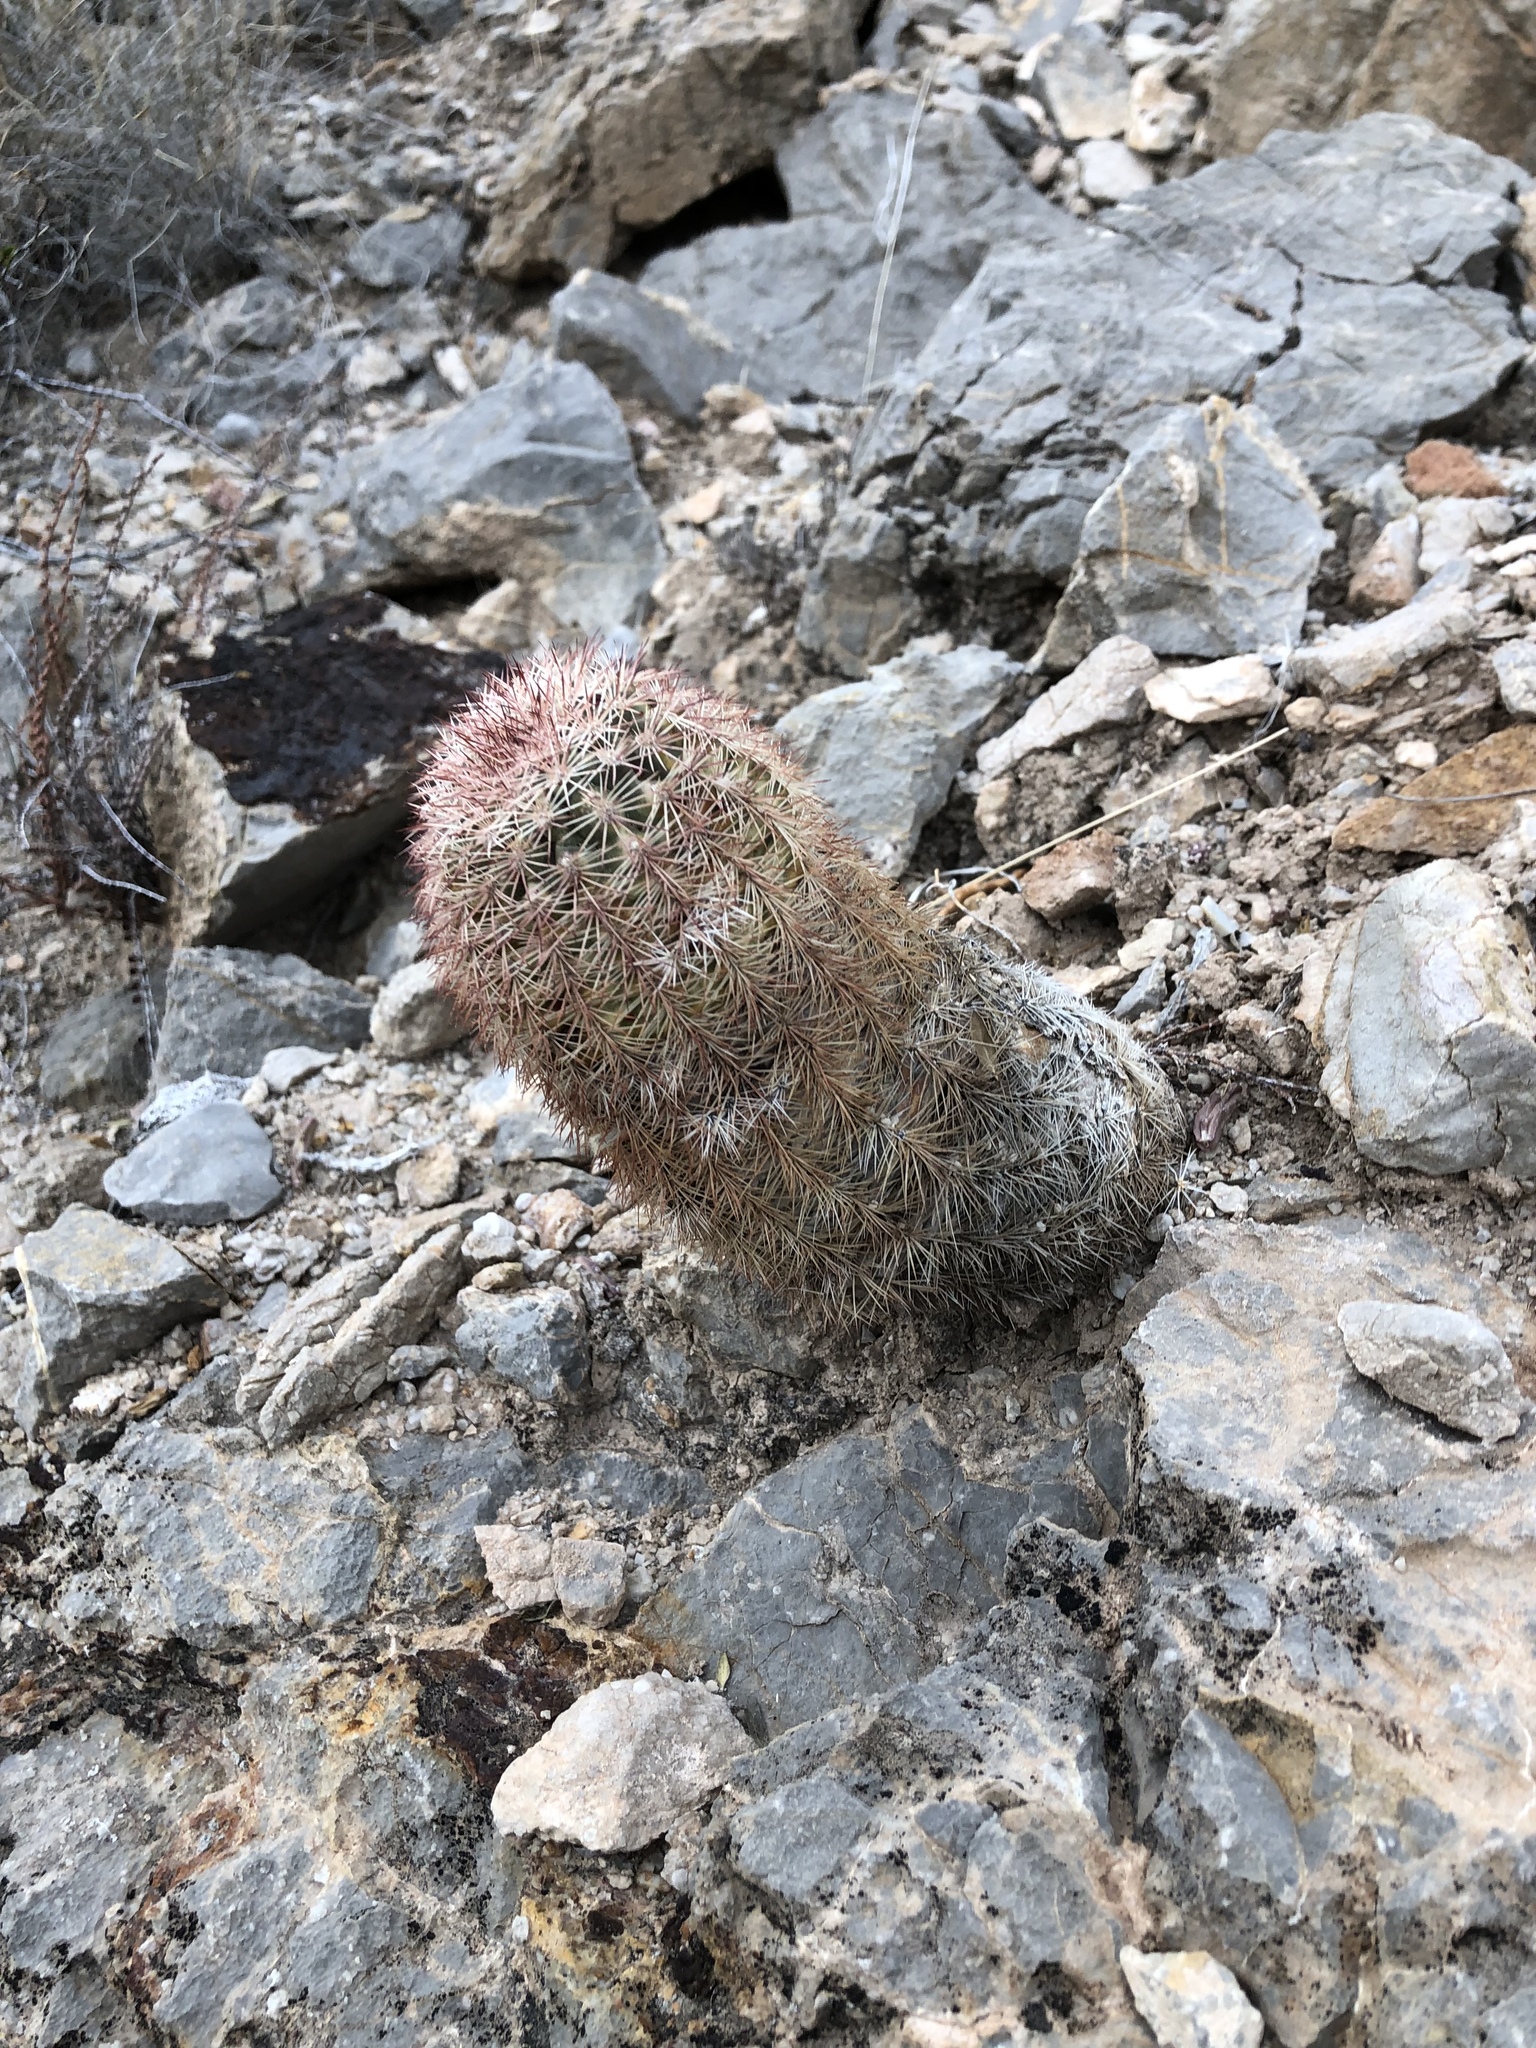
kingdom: Plantae
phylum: Tracheophyta
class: Magnoliopsida
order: Caryophyllales
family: Cactaceae
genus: Echinocereus
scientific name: Echinocereus dasyacanthus
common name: Spiny hedgehog cactus
